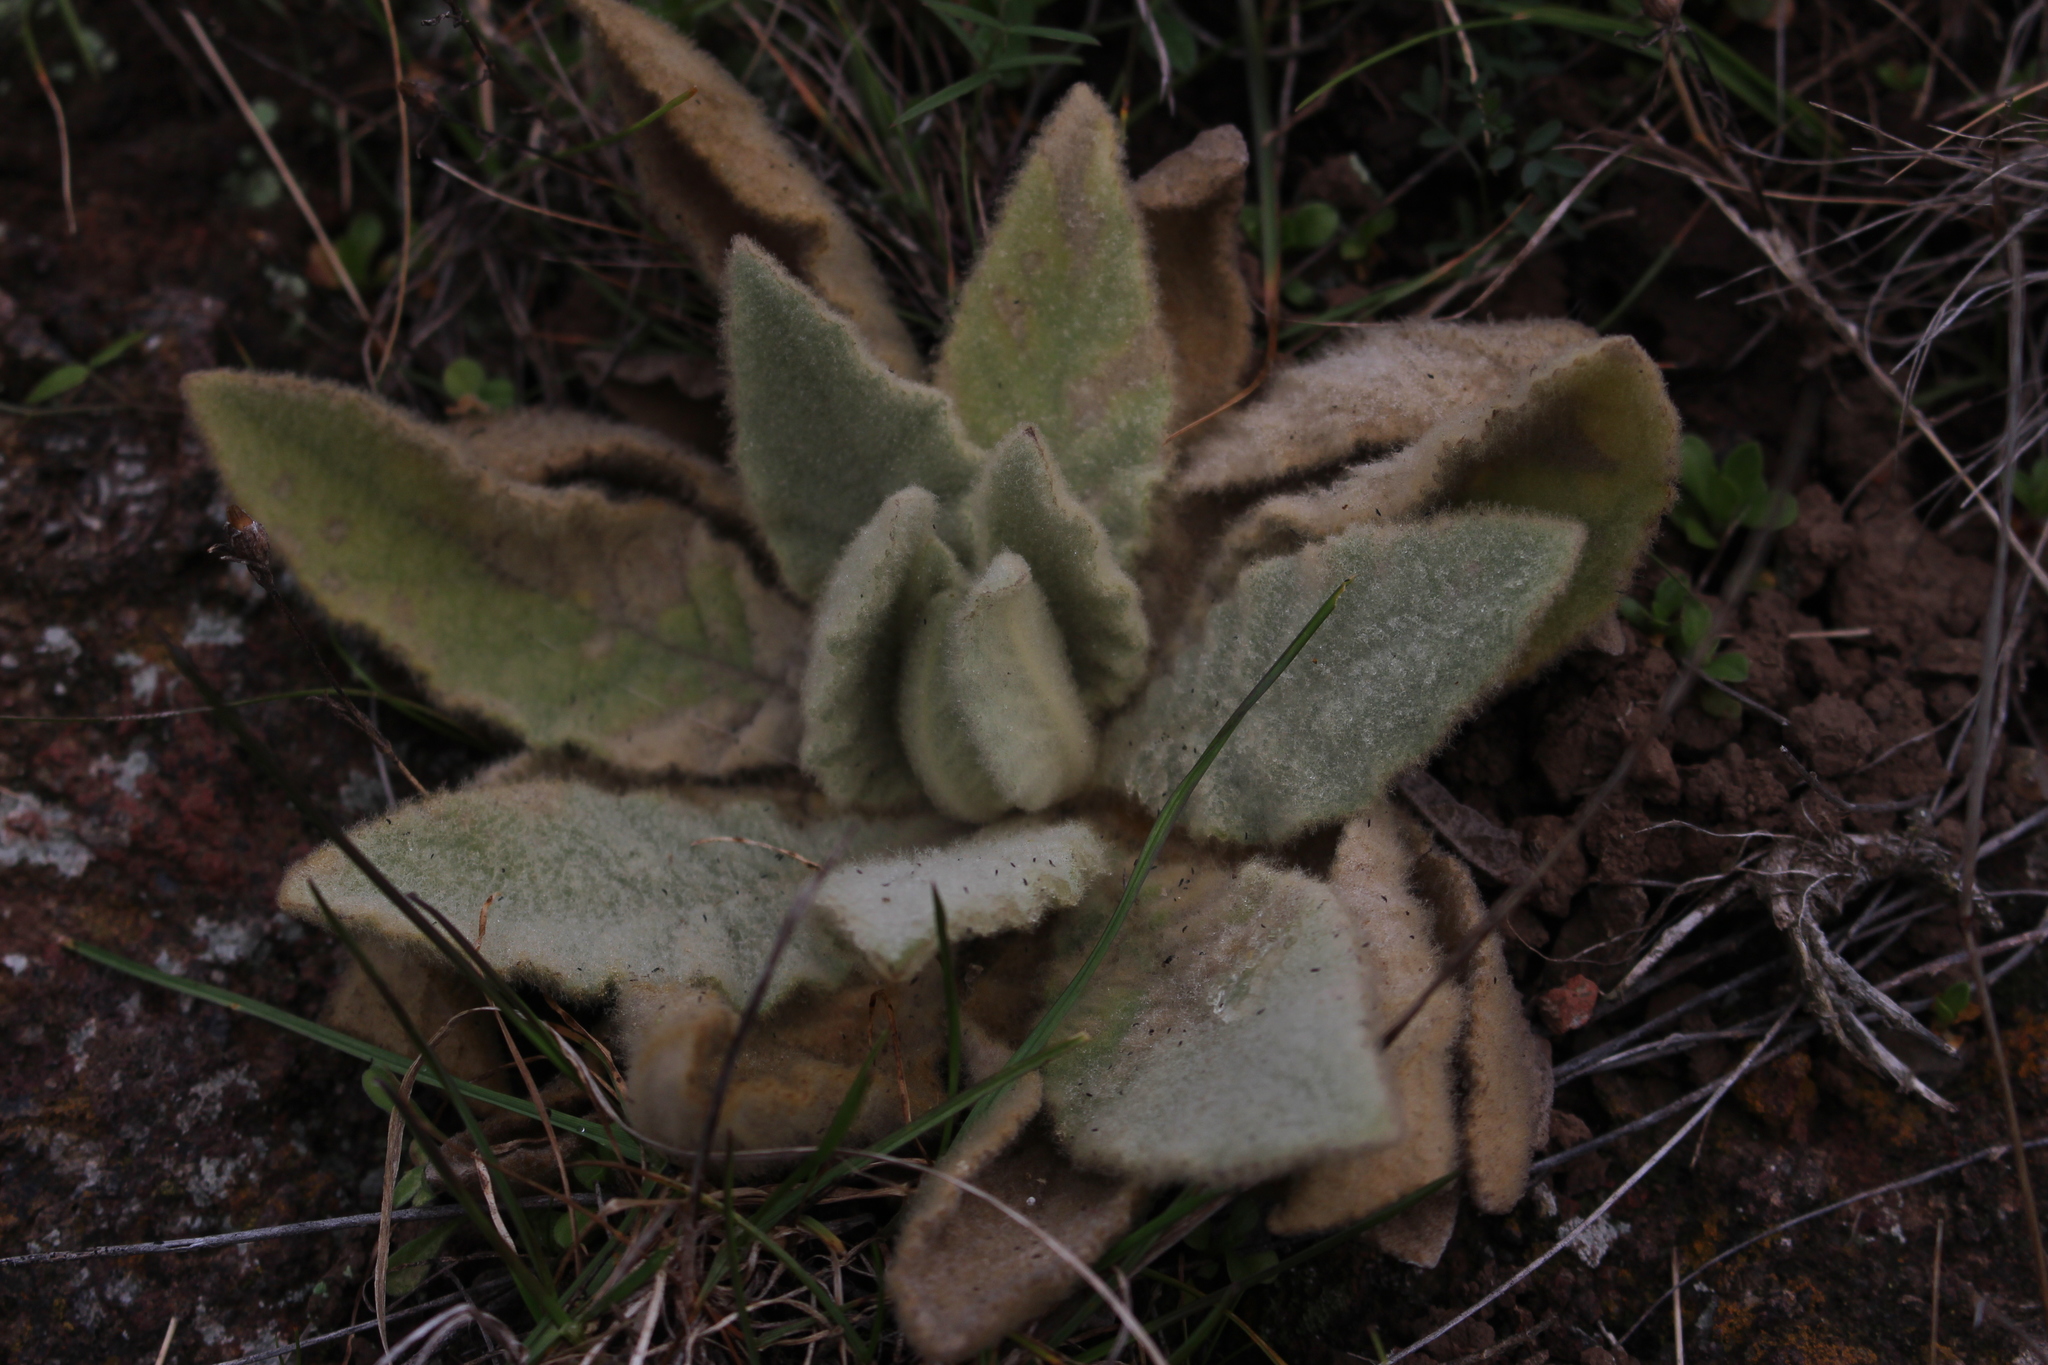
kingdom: Plantae
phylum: Tracheophyta
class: Magnoliopsida
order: Lamiales
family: Scrophulariaceae
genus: Verbascum
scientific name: Verbascum thapsus
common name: Common mullein
